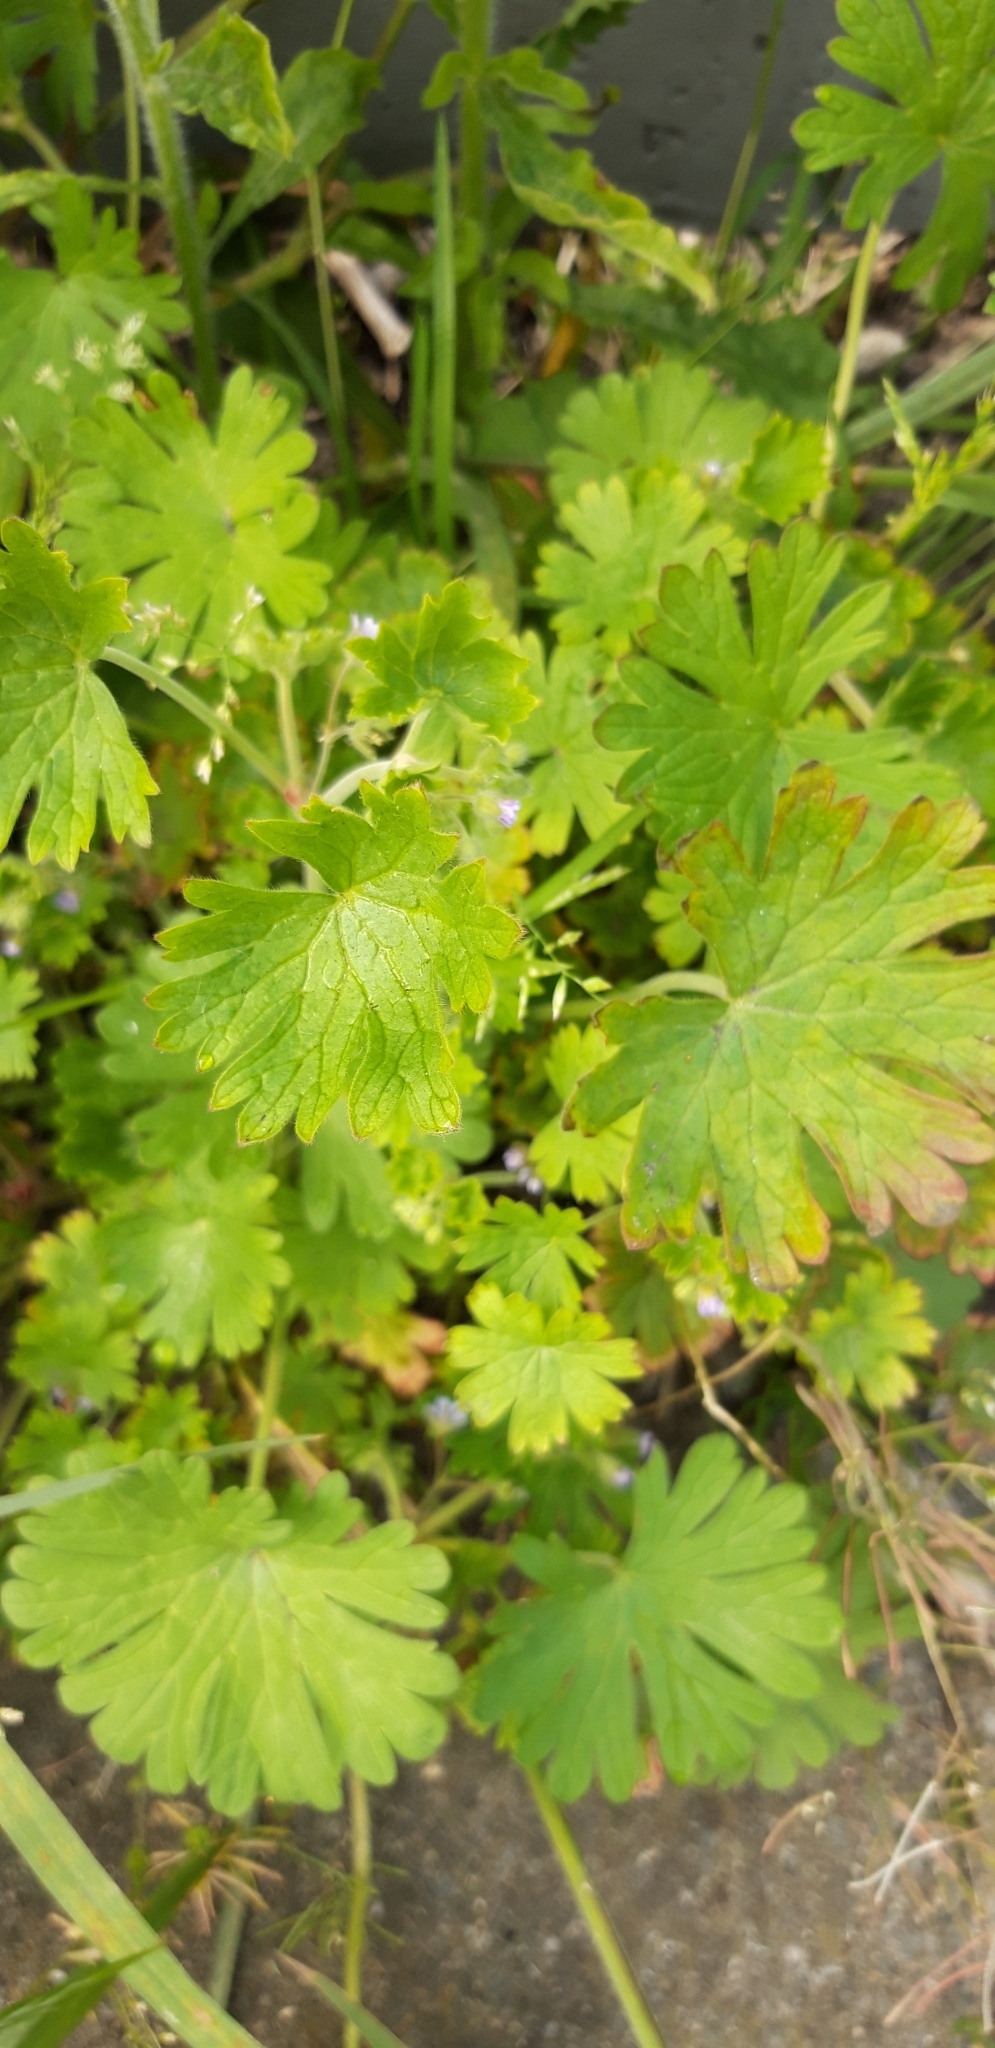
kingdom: Plantae
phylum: Tracheophyta
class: Magnoliopsida
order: Geraniales
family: Geraniaceae
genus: Geranium
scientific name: Geranium
